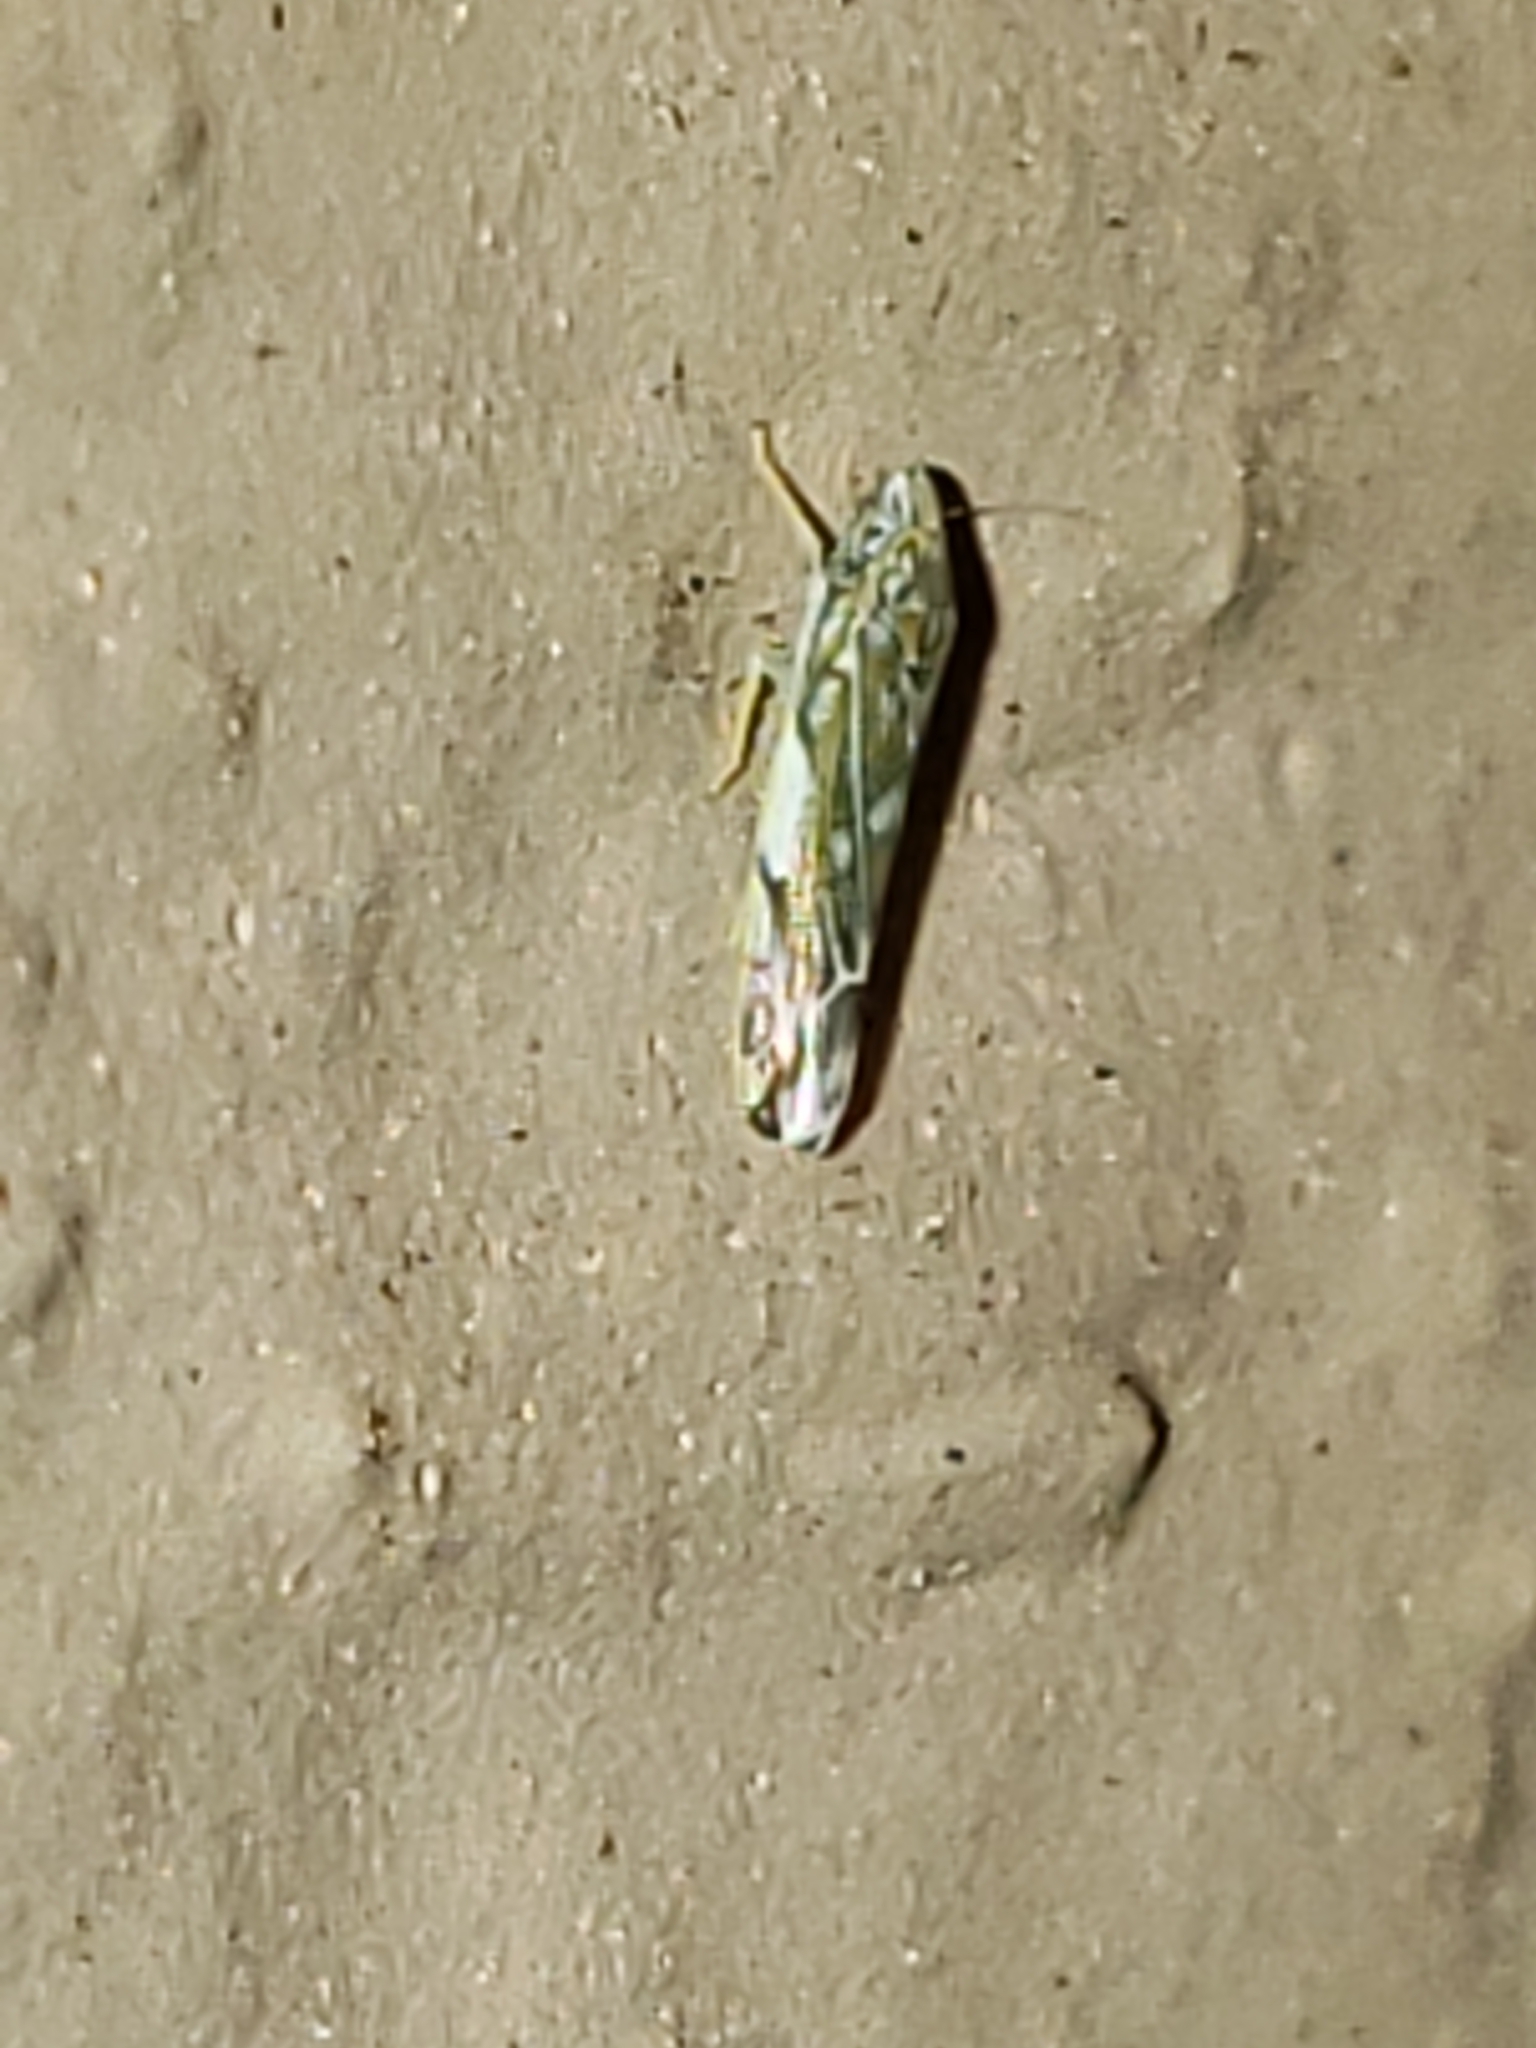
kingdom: Animalia
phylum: Arthropoda
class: Insecta
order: Hemiptera
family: Cicadellidae
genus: Erasmoneura
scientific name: Erasmoneura vulnerata
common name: The wounded leafhopper
